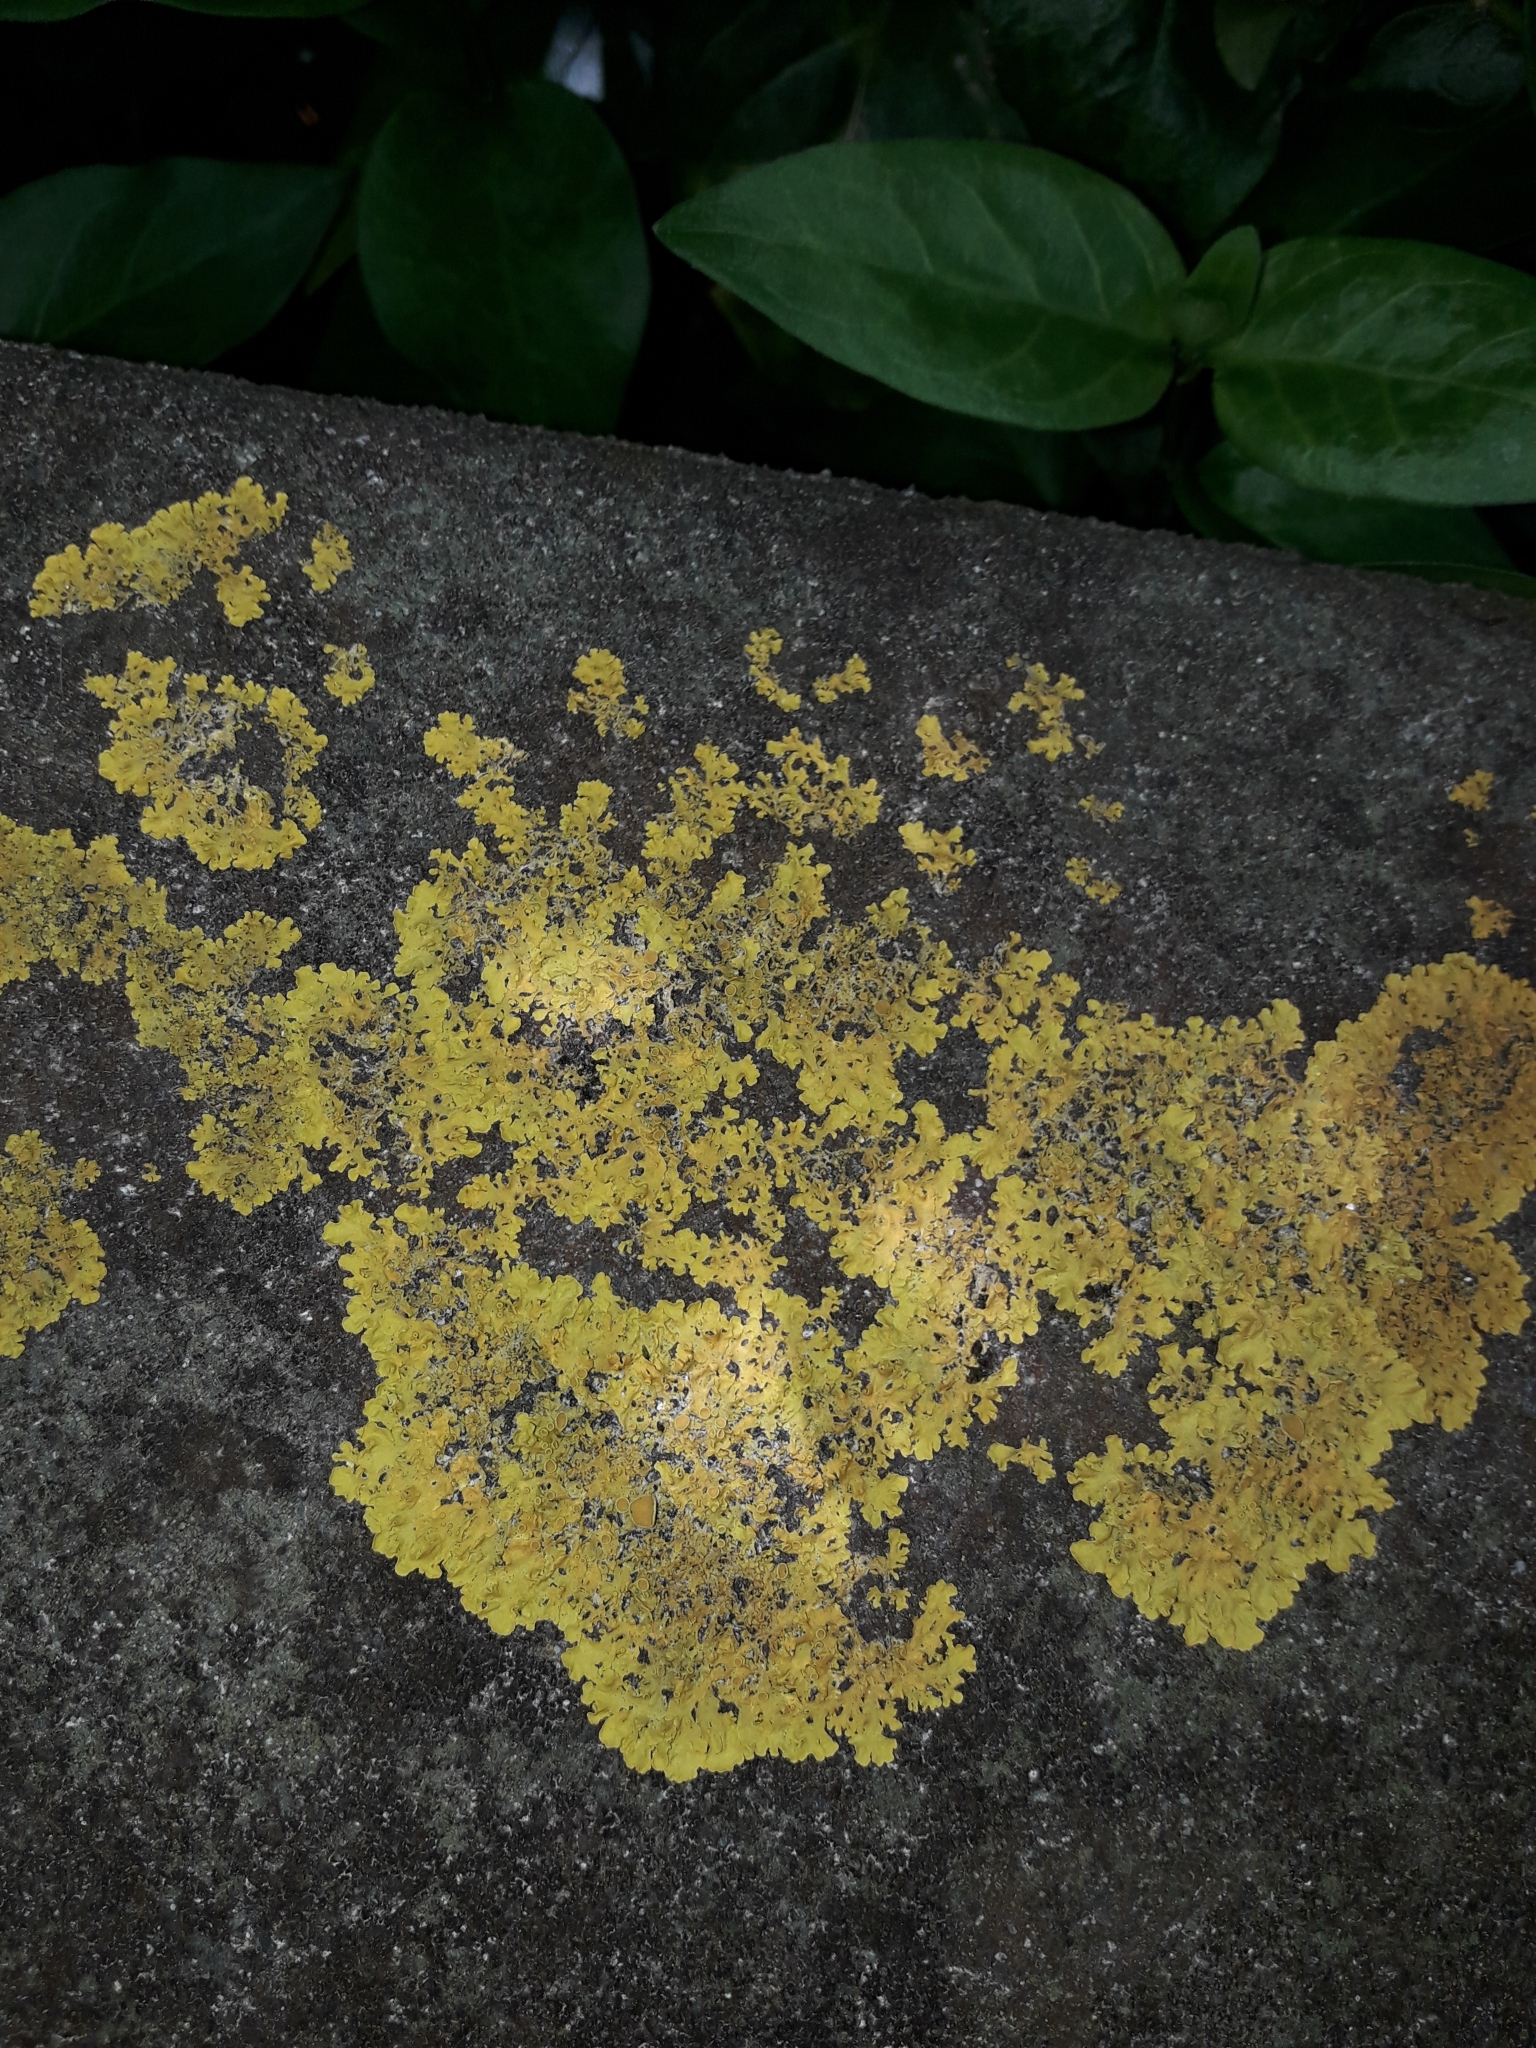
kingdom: Fungi
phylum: Ascomycota
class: Lecanoromycetes
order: Teloschistales
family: Teloschistaceae
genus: Xanthoria
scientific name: Xanthoria parietina
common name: Common orange lichen
